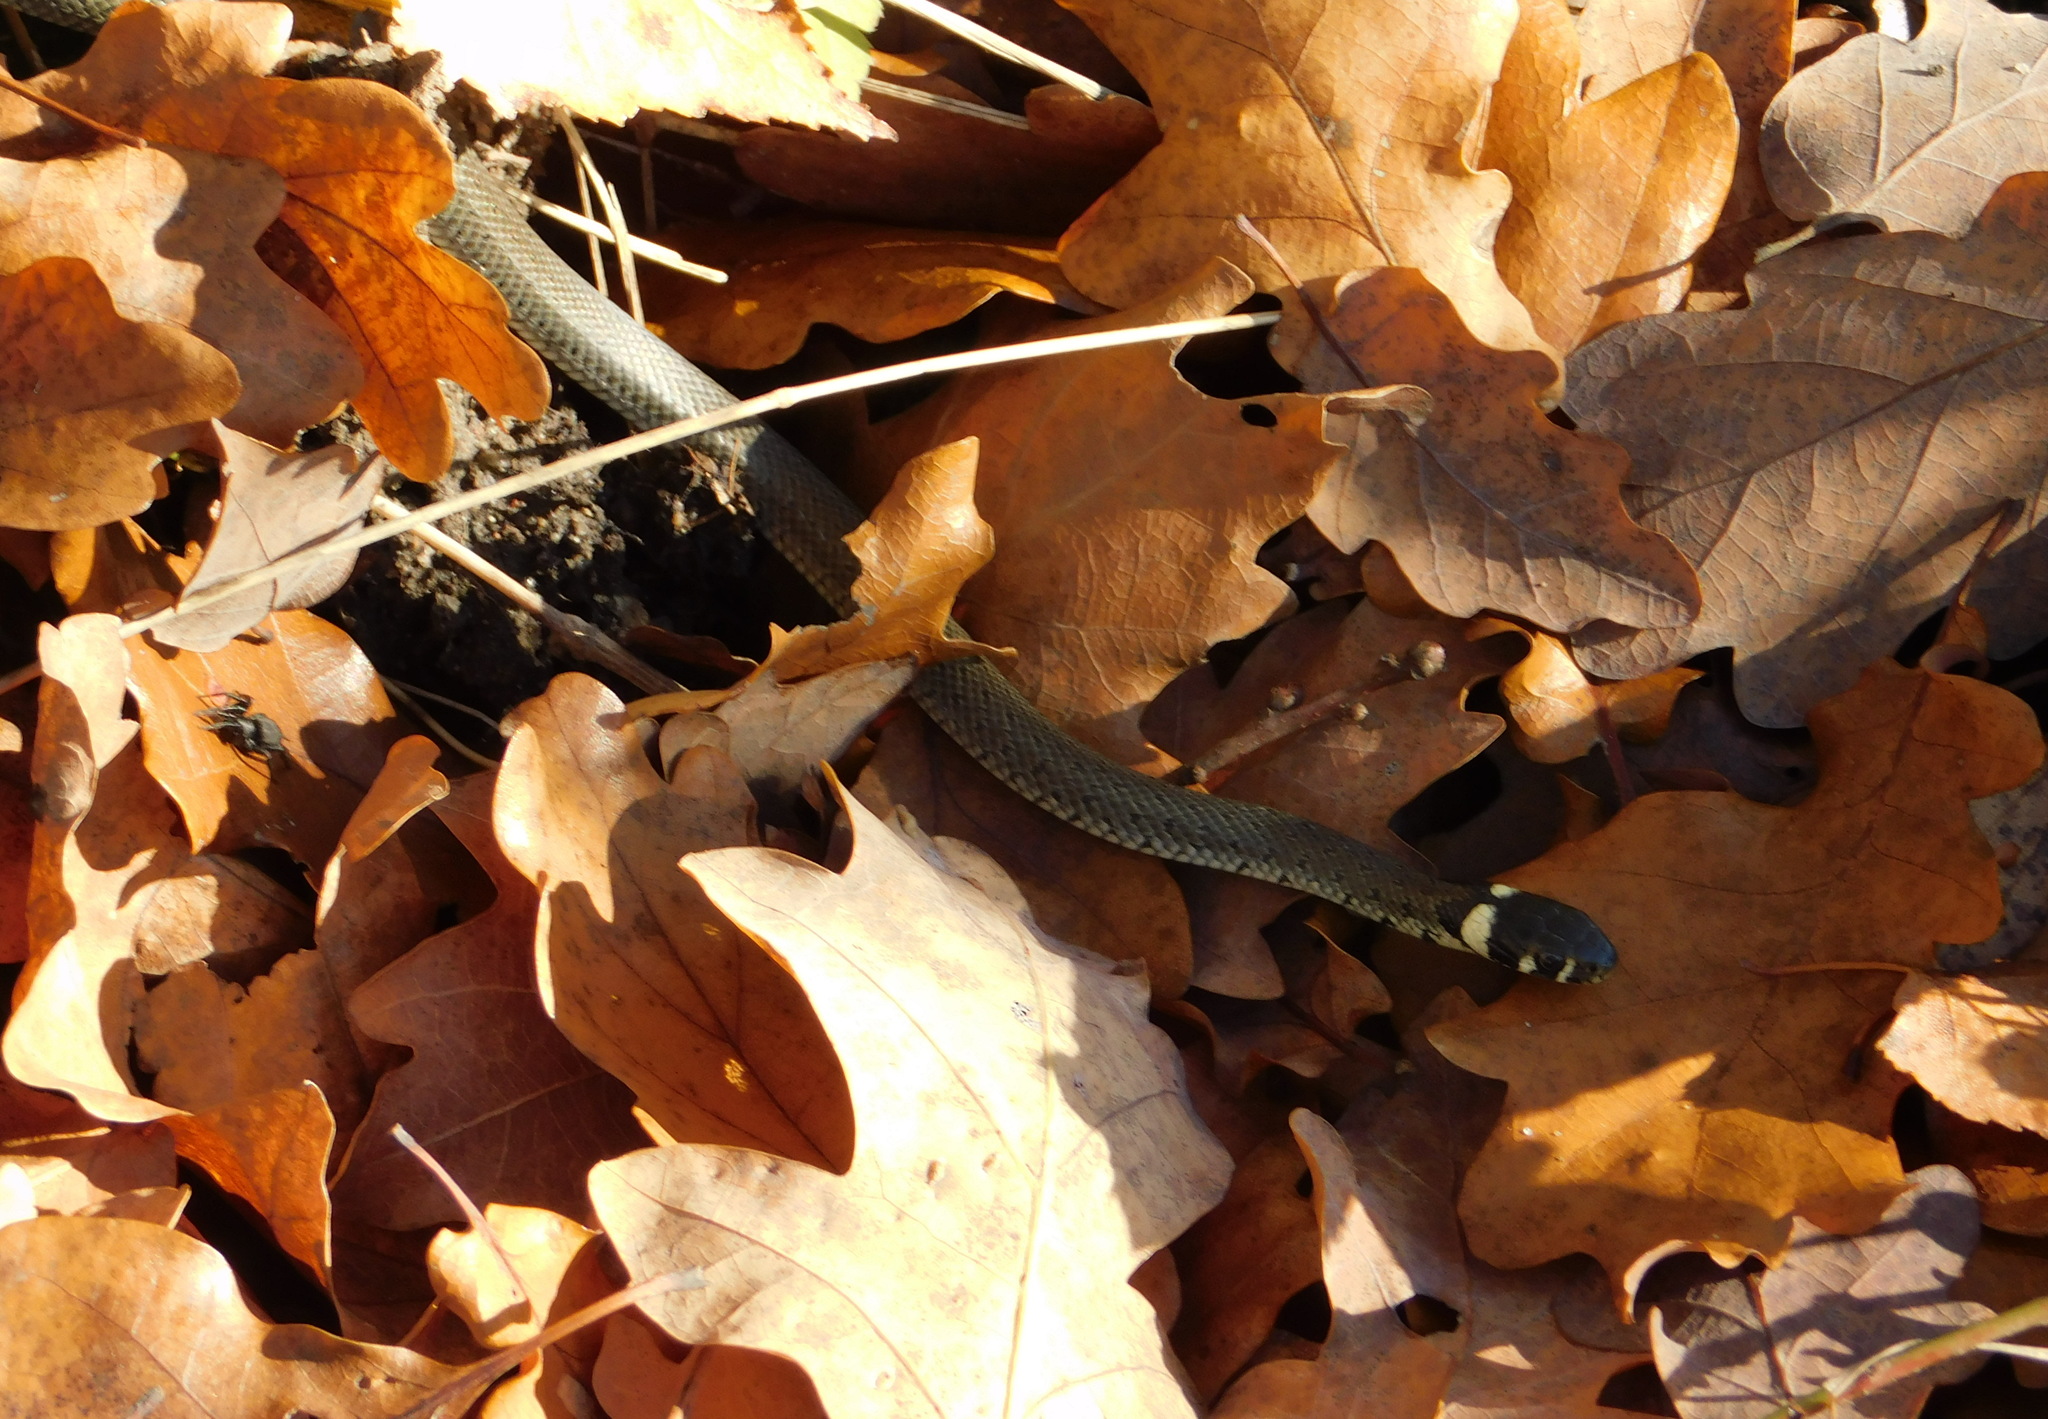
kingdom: Animalia
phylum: Chordata
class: Squamata
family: Colubridae
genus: Natrix
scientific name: Natrix natrix
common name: Grass snake
